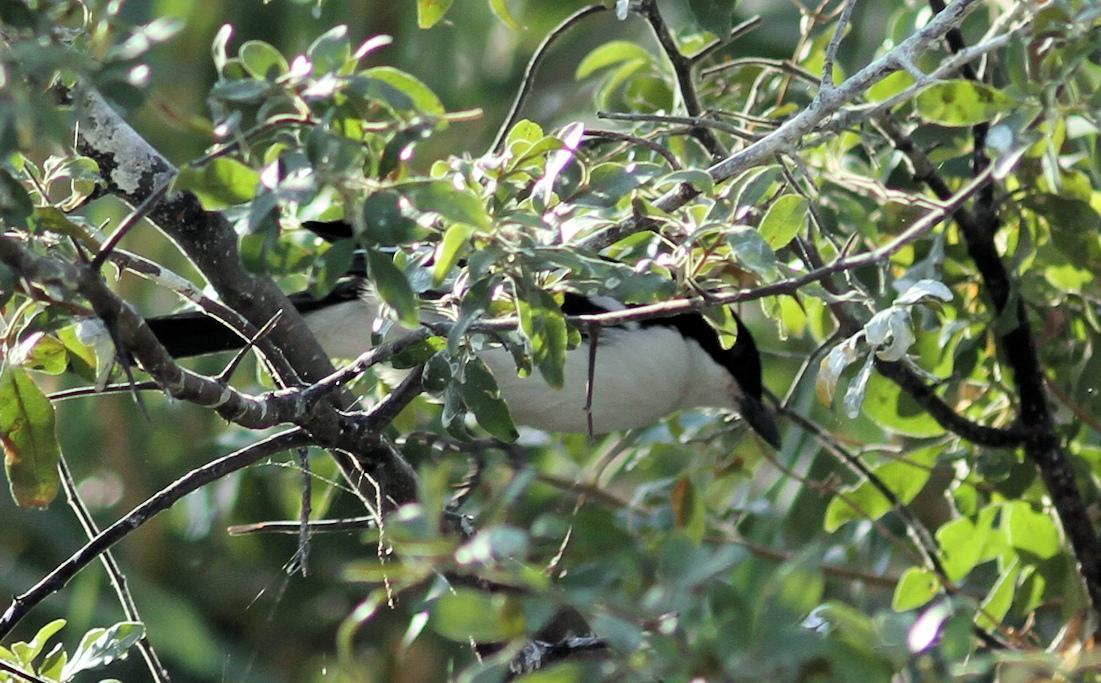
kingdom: Animalia
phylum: Chordata
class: Aves
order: Passeriformes
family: Malaconotidae
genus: Laniarius
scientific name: Laniarius bicolor
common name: Swamp boubou
